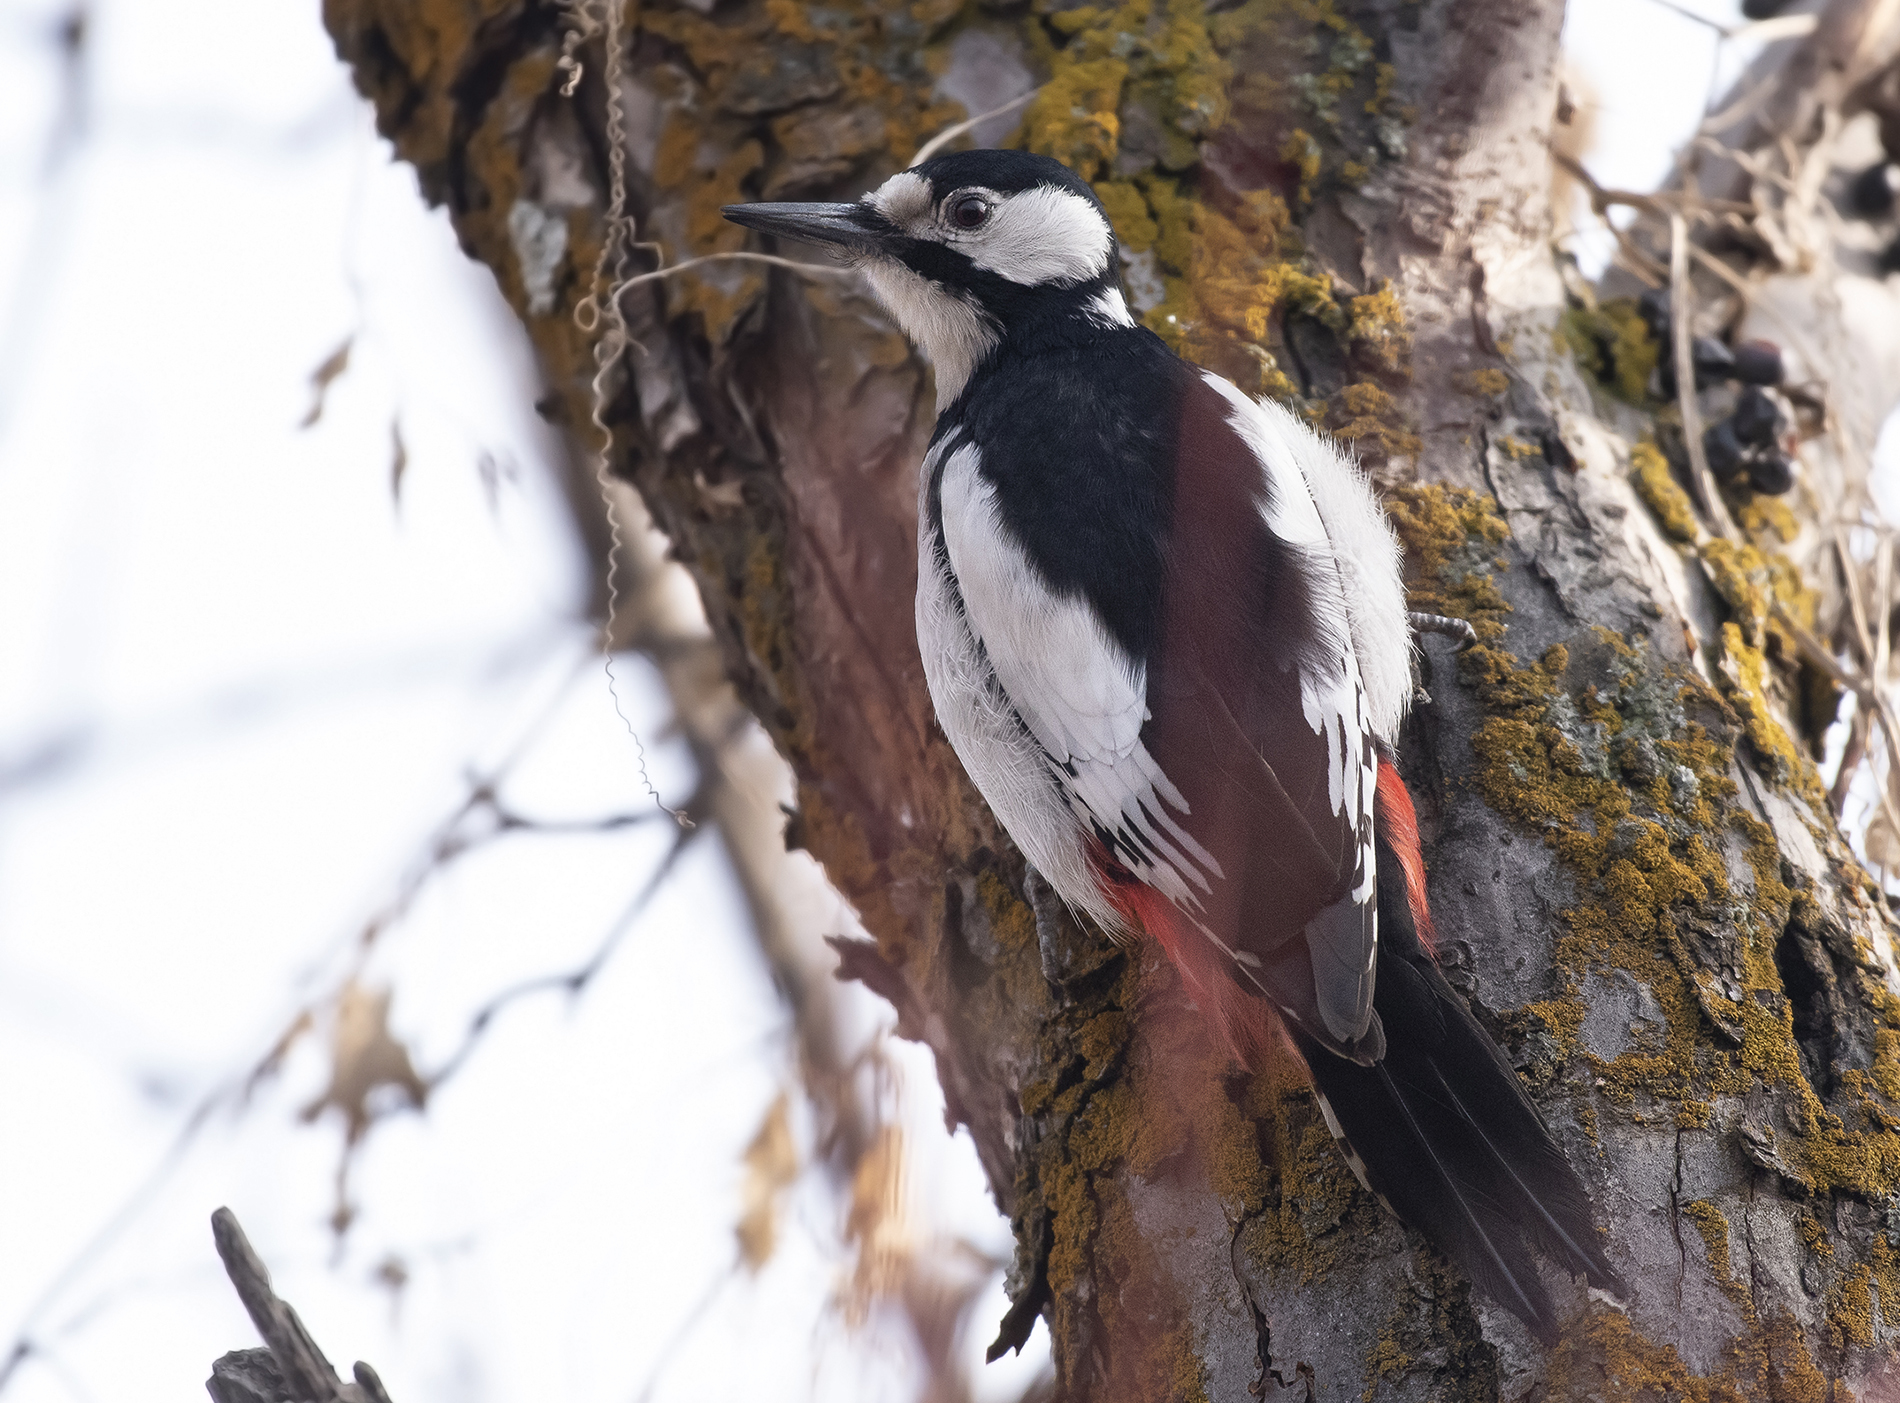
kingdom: Animalia
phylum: Chordata
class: Aves
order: Piciformes
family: Picidae
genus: Dendrocopos
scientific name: Dendrocopos leucopterus
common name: White-winged woodpecker
